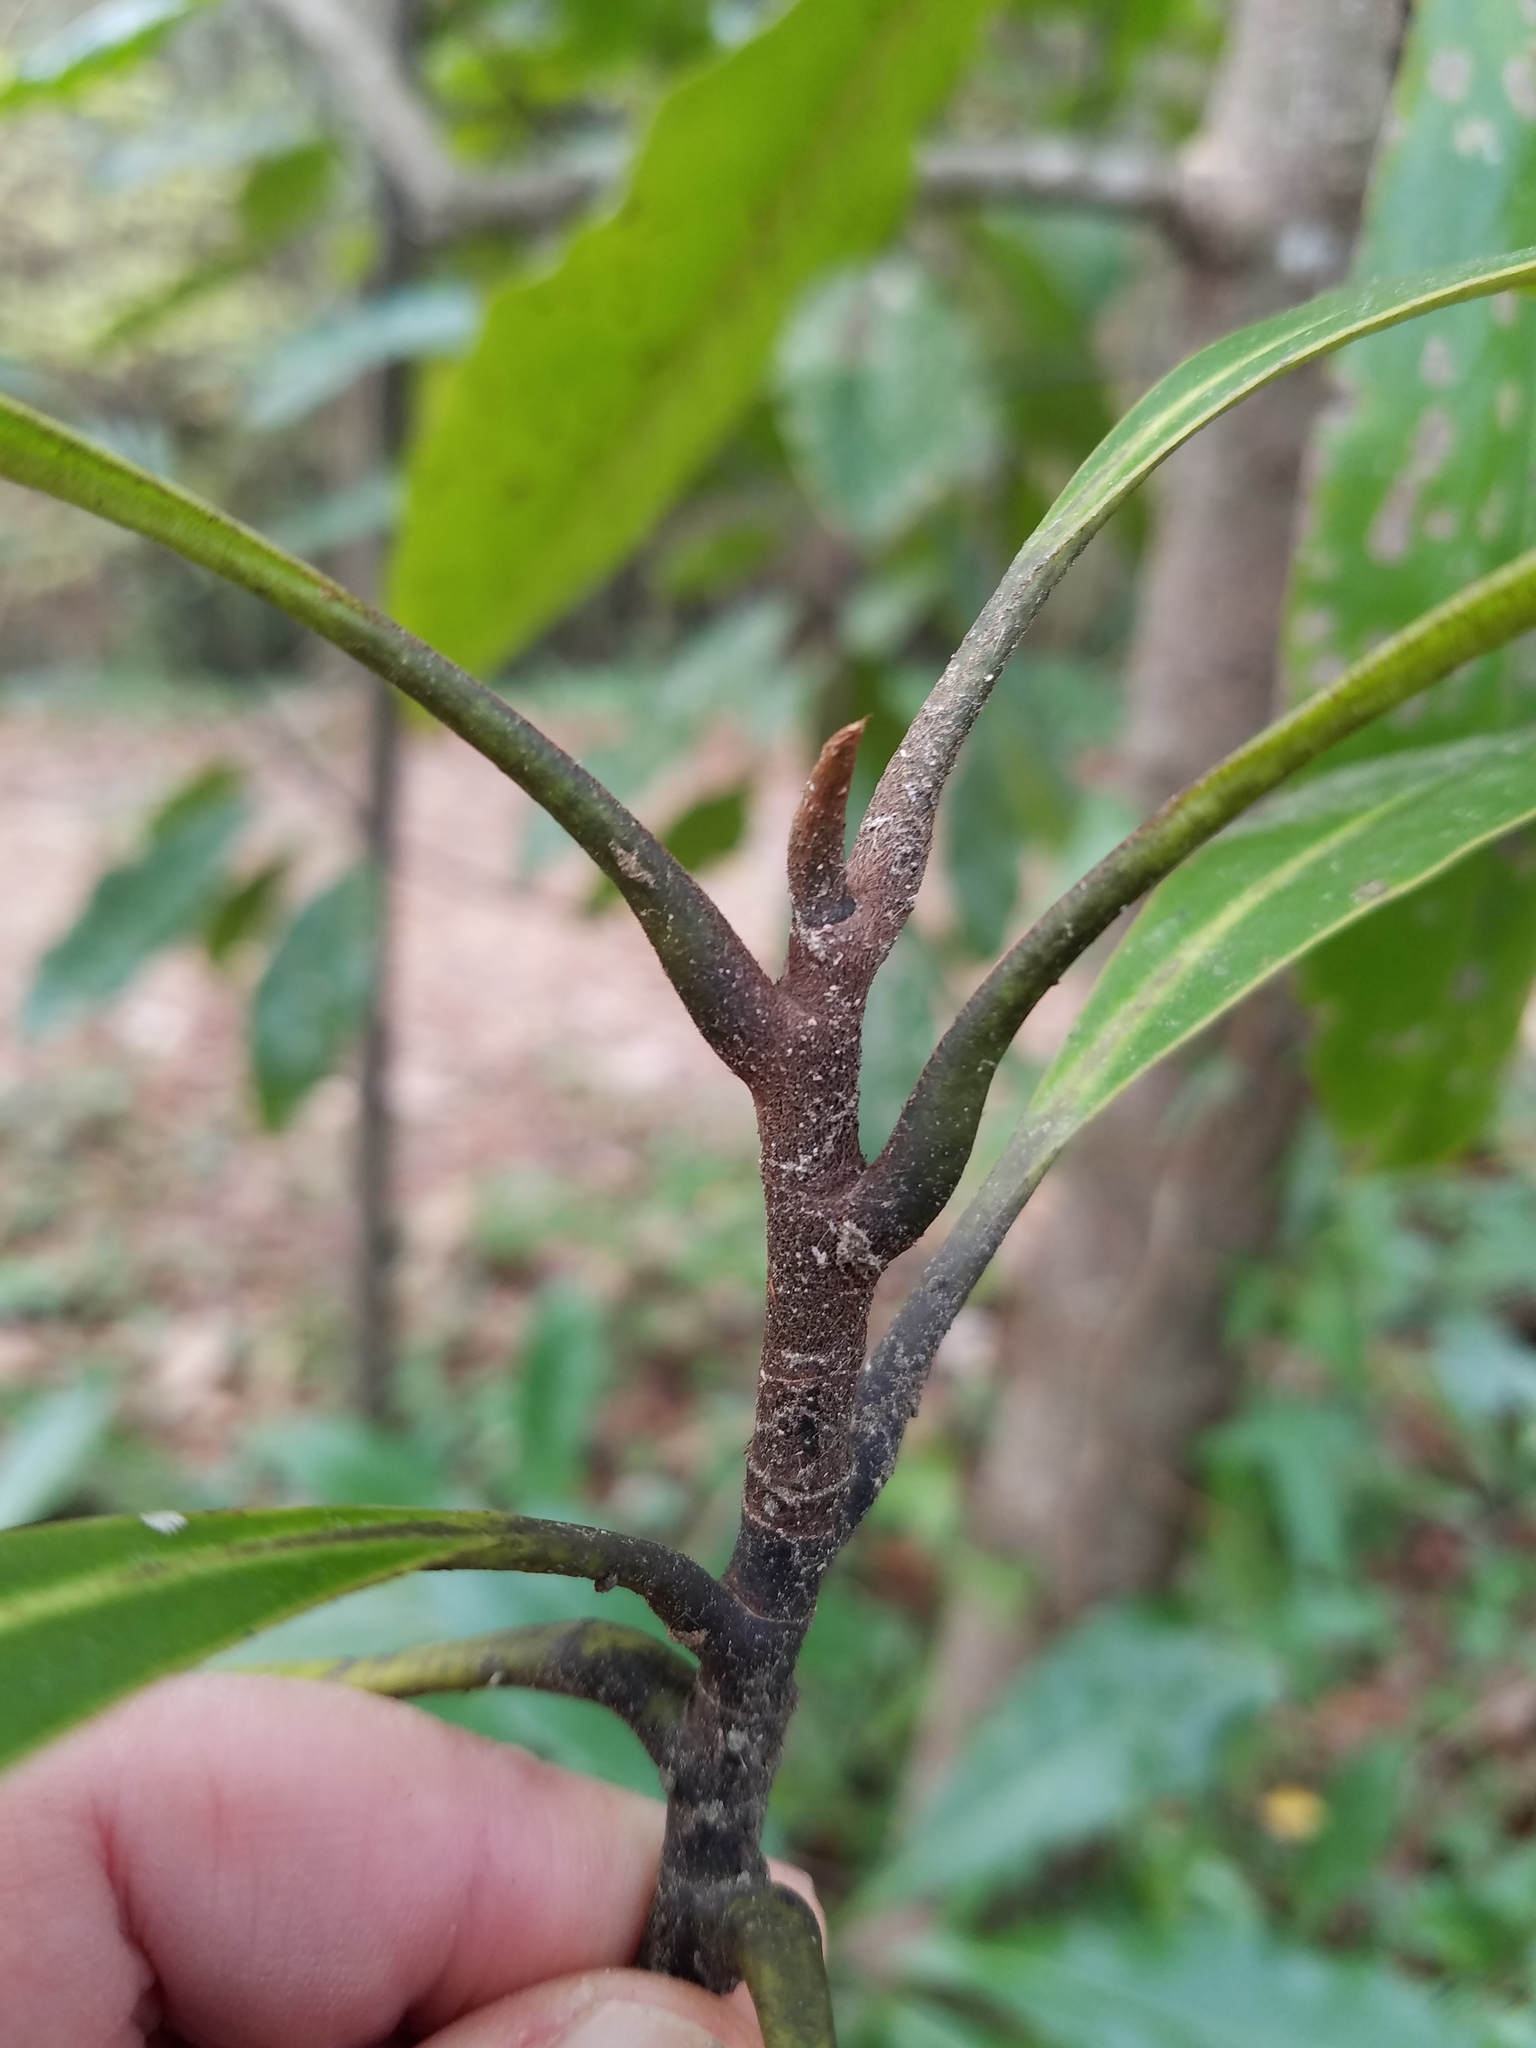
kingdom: Plantae
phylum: Tracheophyta
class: Magnoliopsida
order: Magnoliales
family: Magnoliaceae
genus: Magnolia
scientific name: Magnolia grandiflora
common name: Southern magnolia
